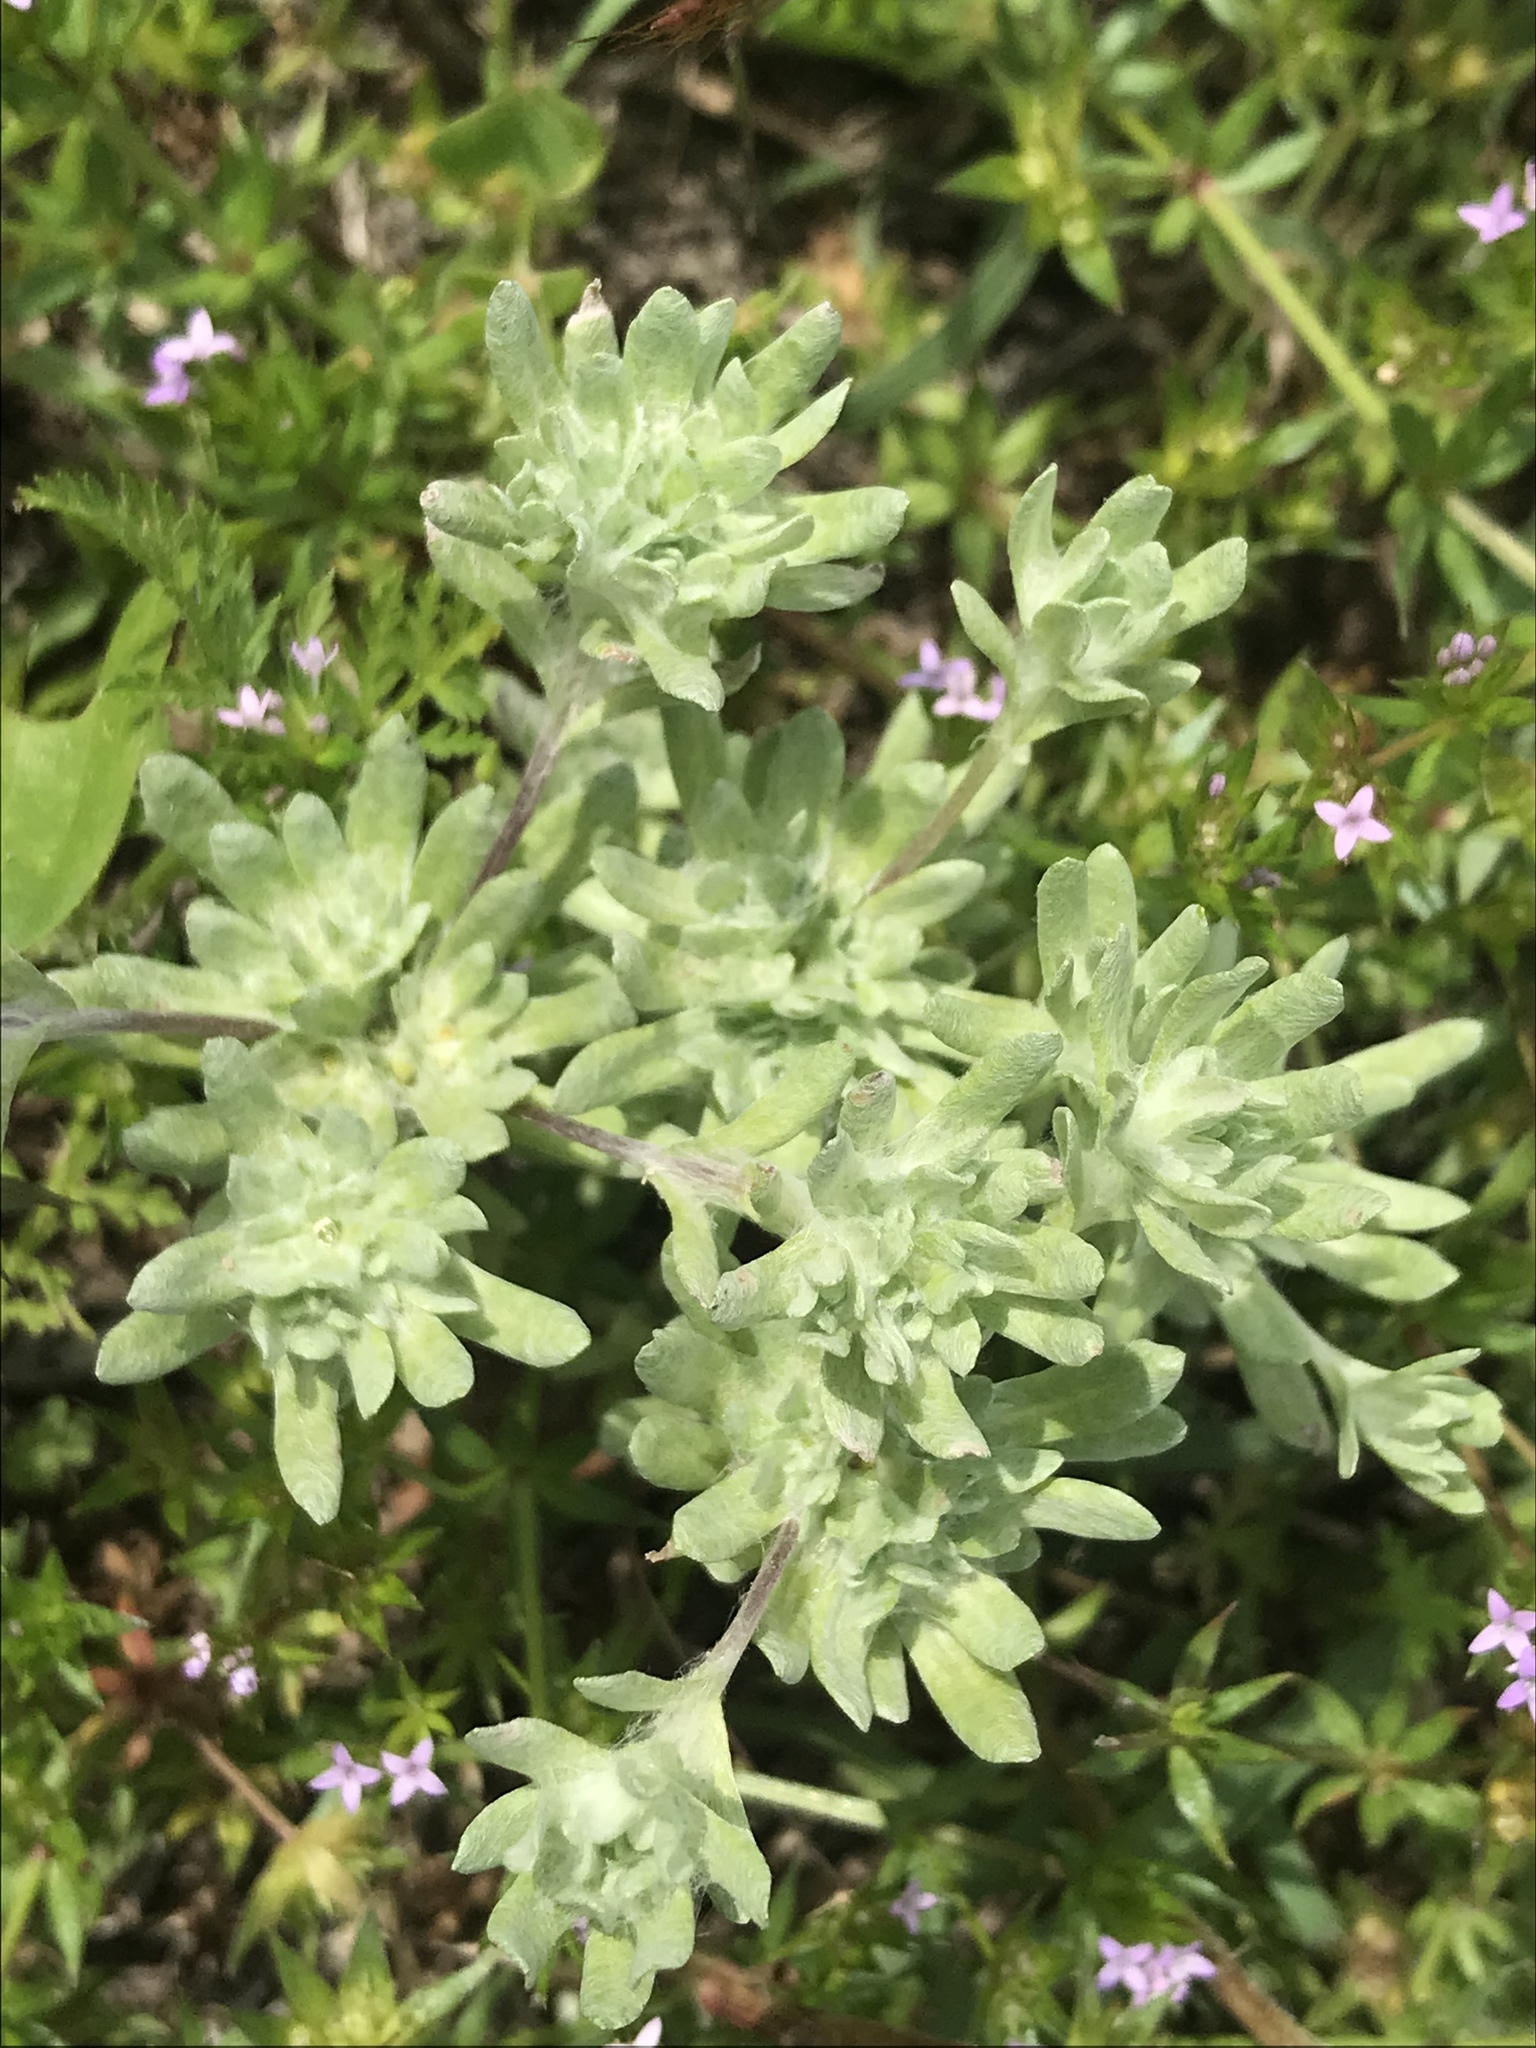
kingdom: Plantae
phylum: Tracheophyta
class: Magnoliopsida
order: Asterales
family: Asteraceae
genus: Diaperia
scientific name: Diaperia prolifera
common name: Big-head rabbit-tobacco
